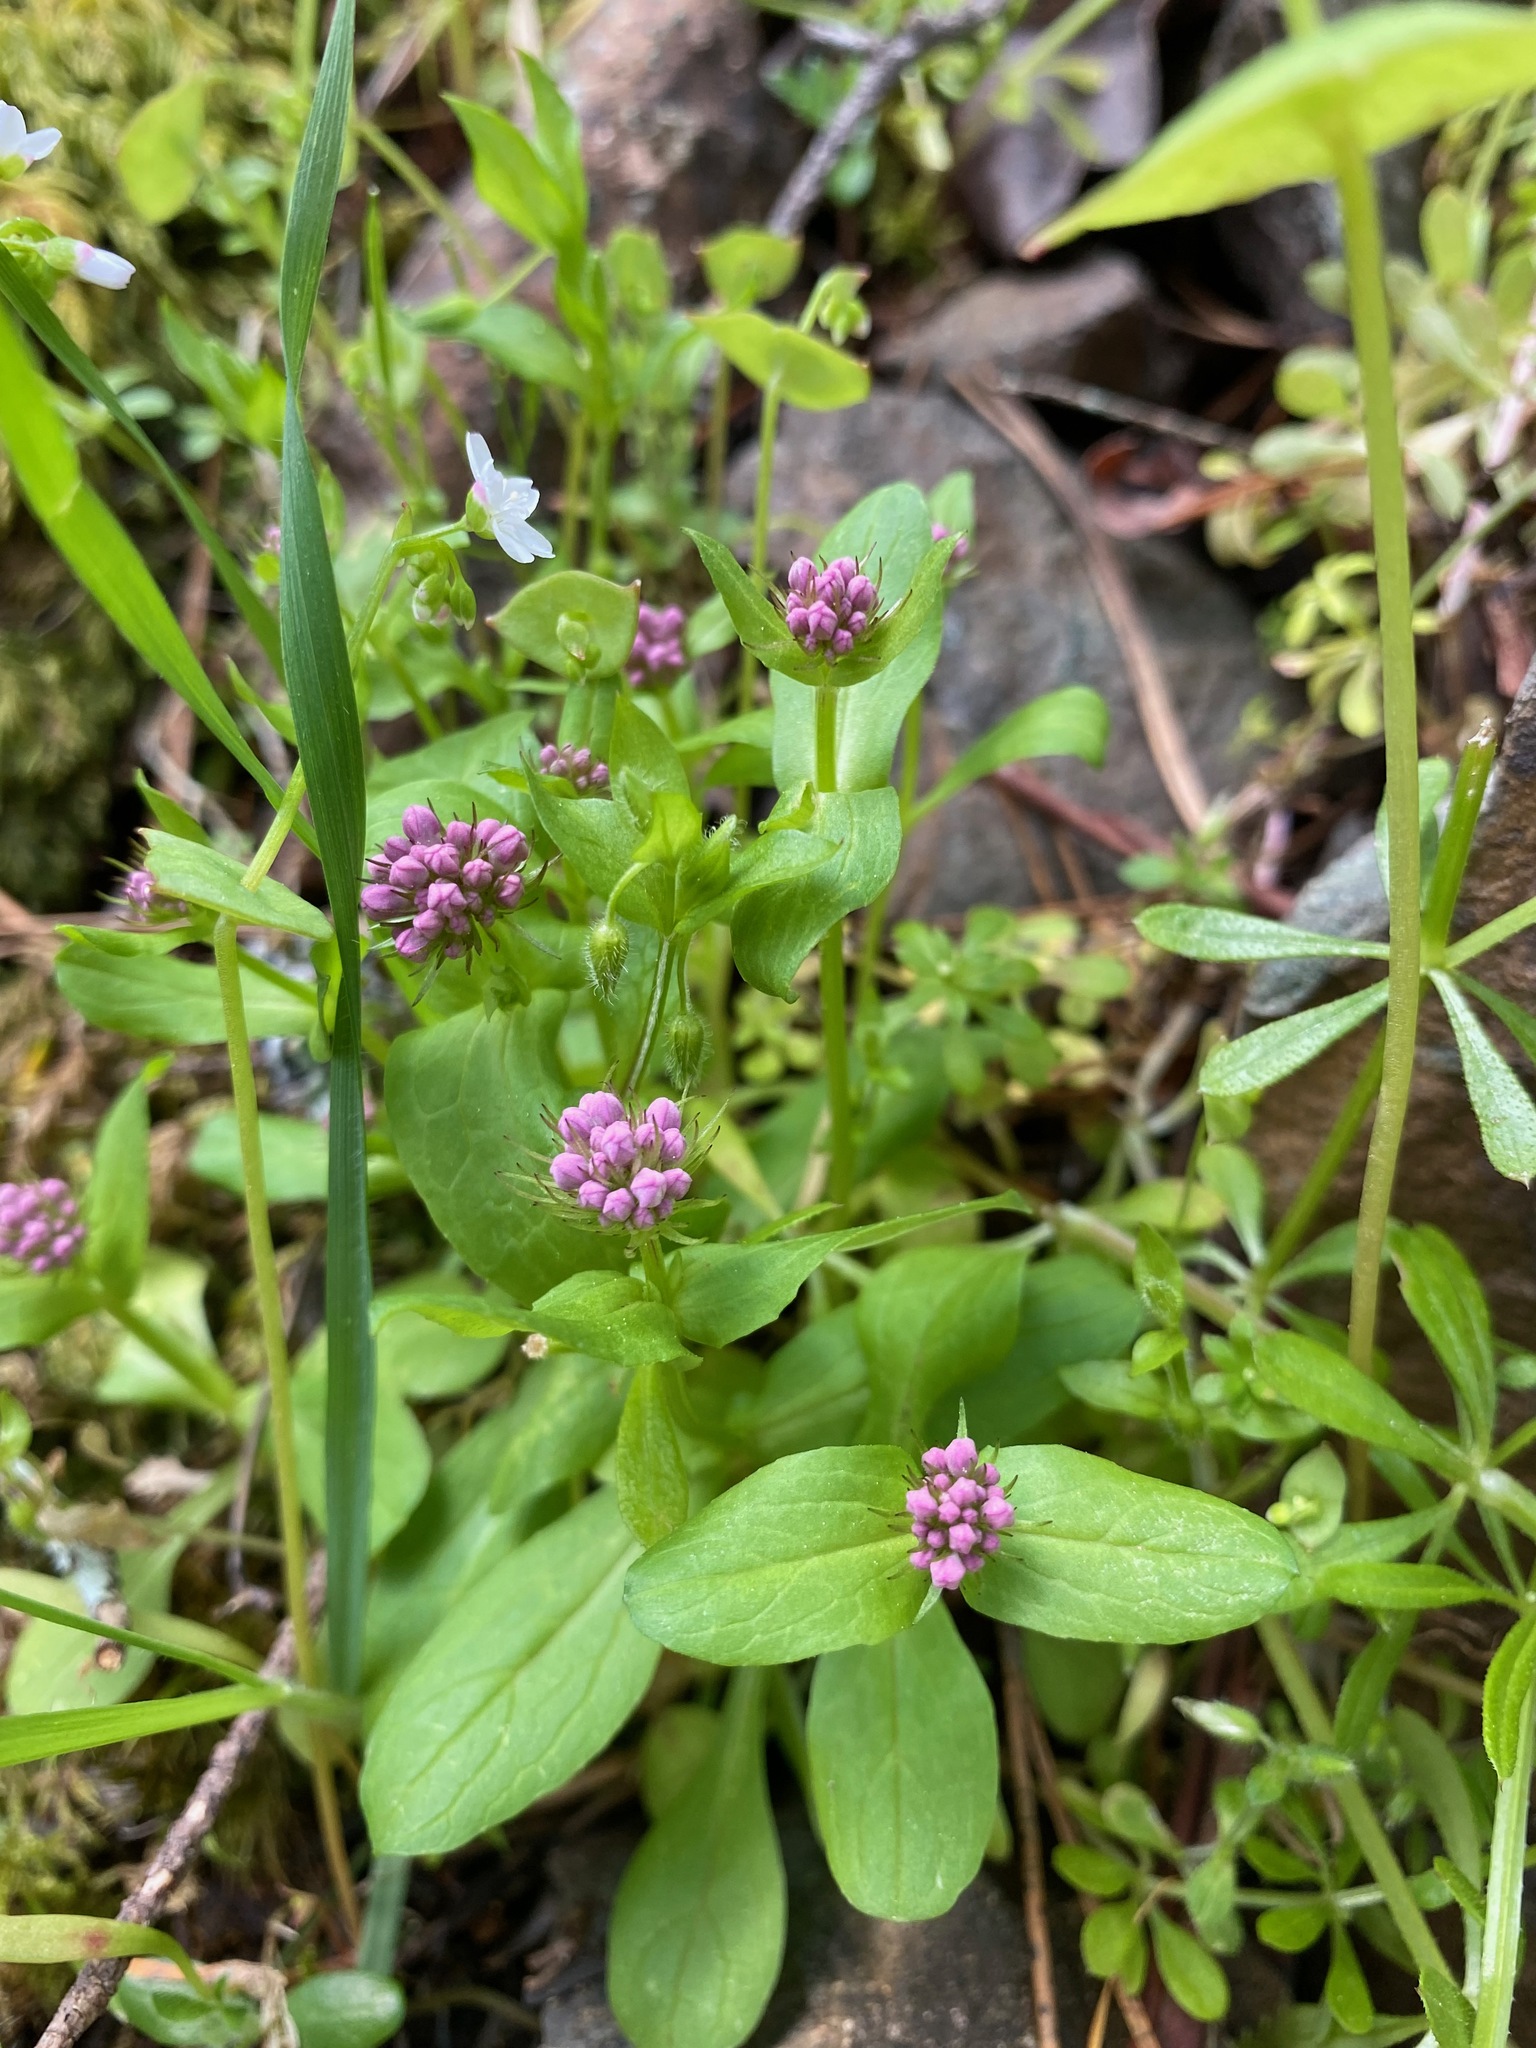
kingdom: Plantae
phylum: Tracheophyta
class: Magnoliopsida
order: Dipsacales
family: Caprifoliaceae
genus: Plectritis
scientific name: Plectritis congesta
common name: Pink plectritis
